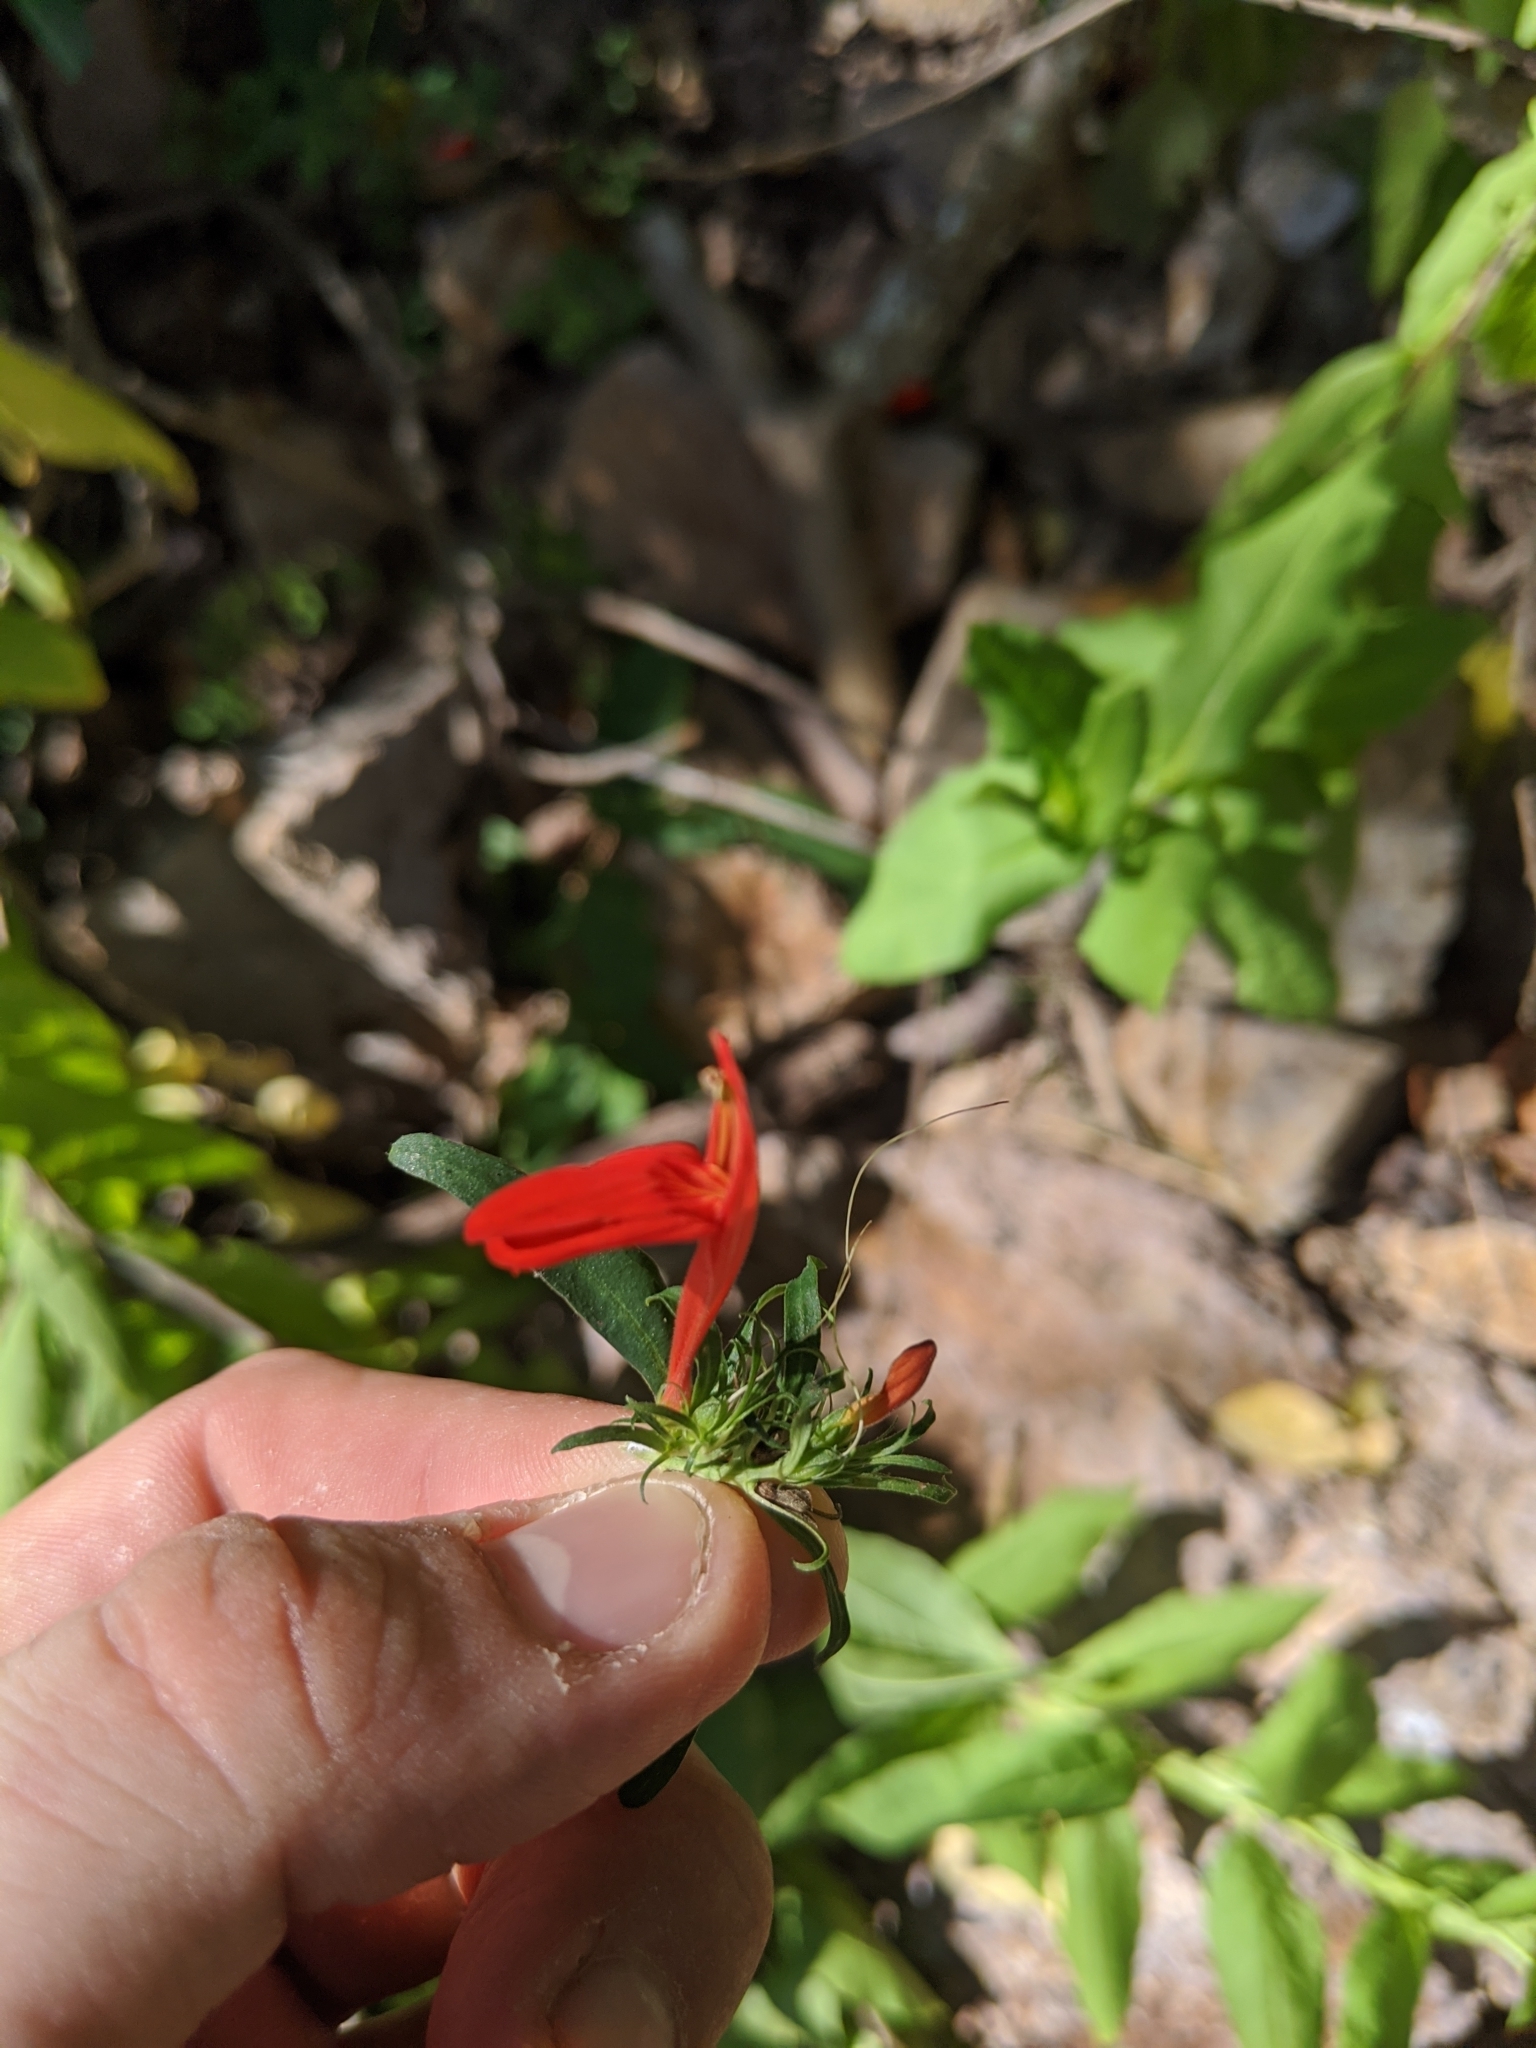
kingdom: Plantae
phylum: Tracheophyta
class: Magnoliopsida
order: Lamiales
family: Acanthaceae
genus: Dianthera
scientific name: Dianthera candicans
